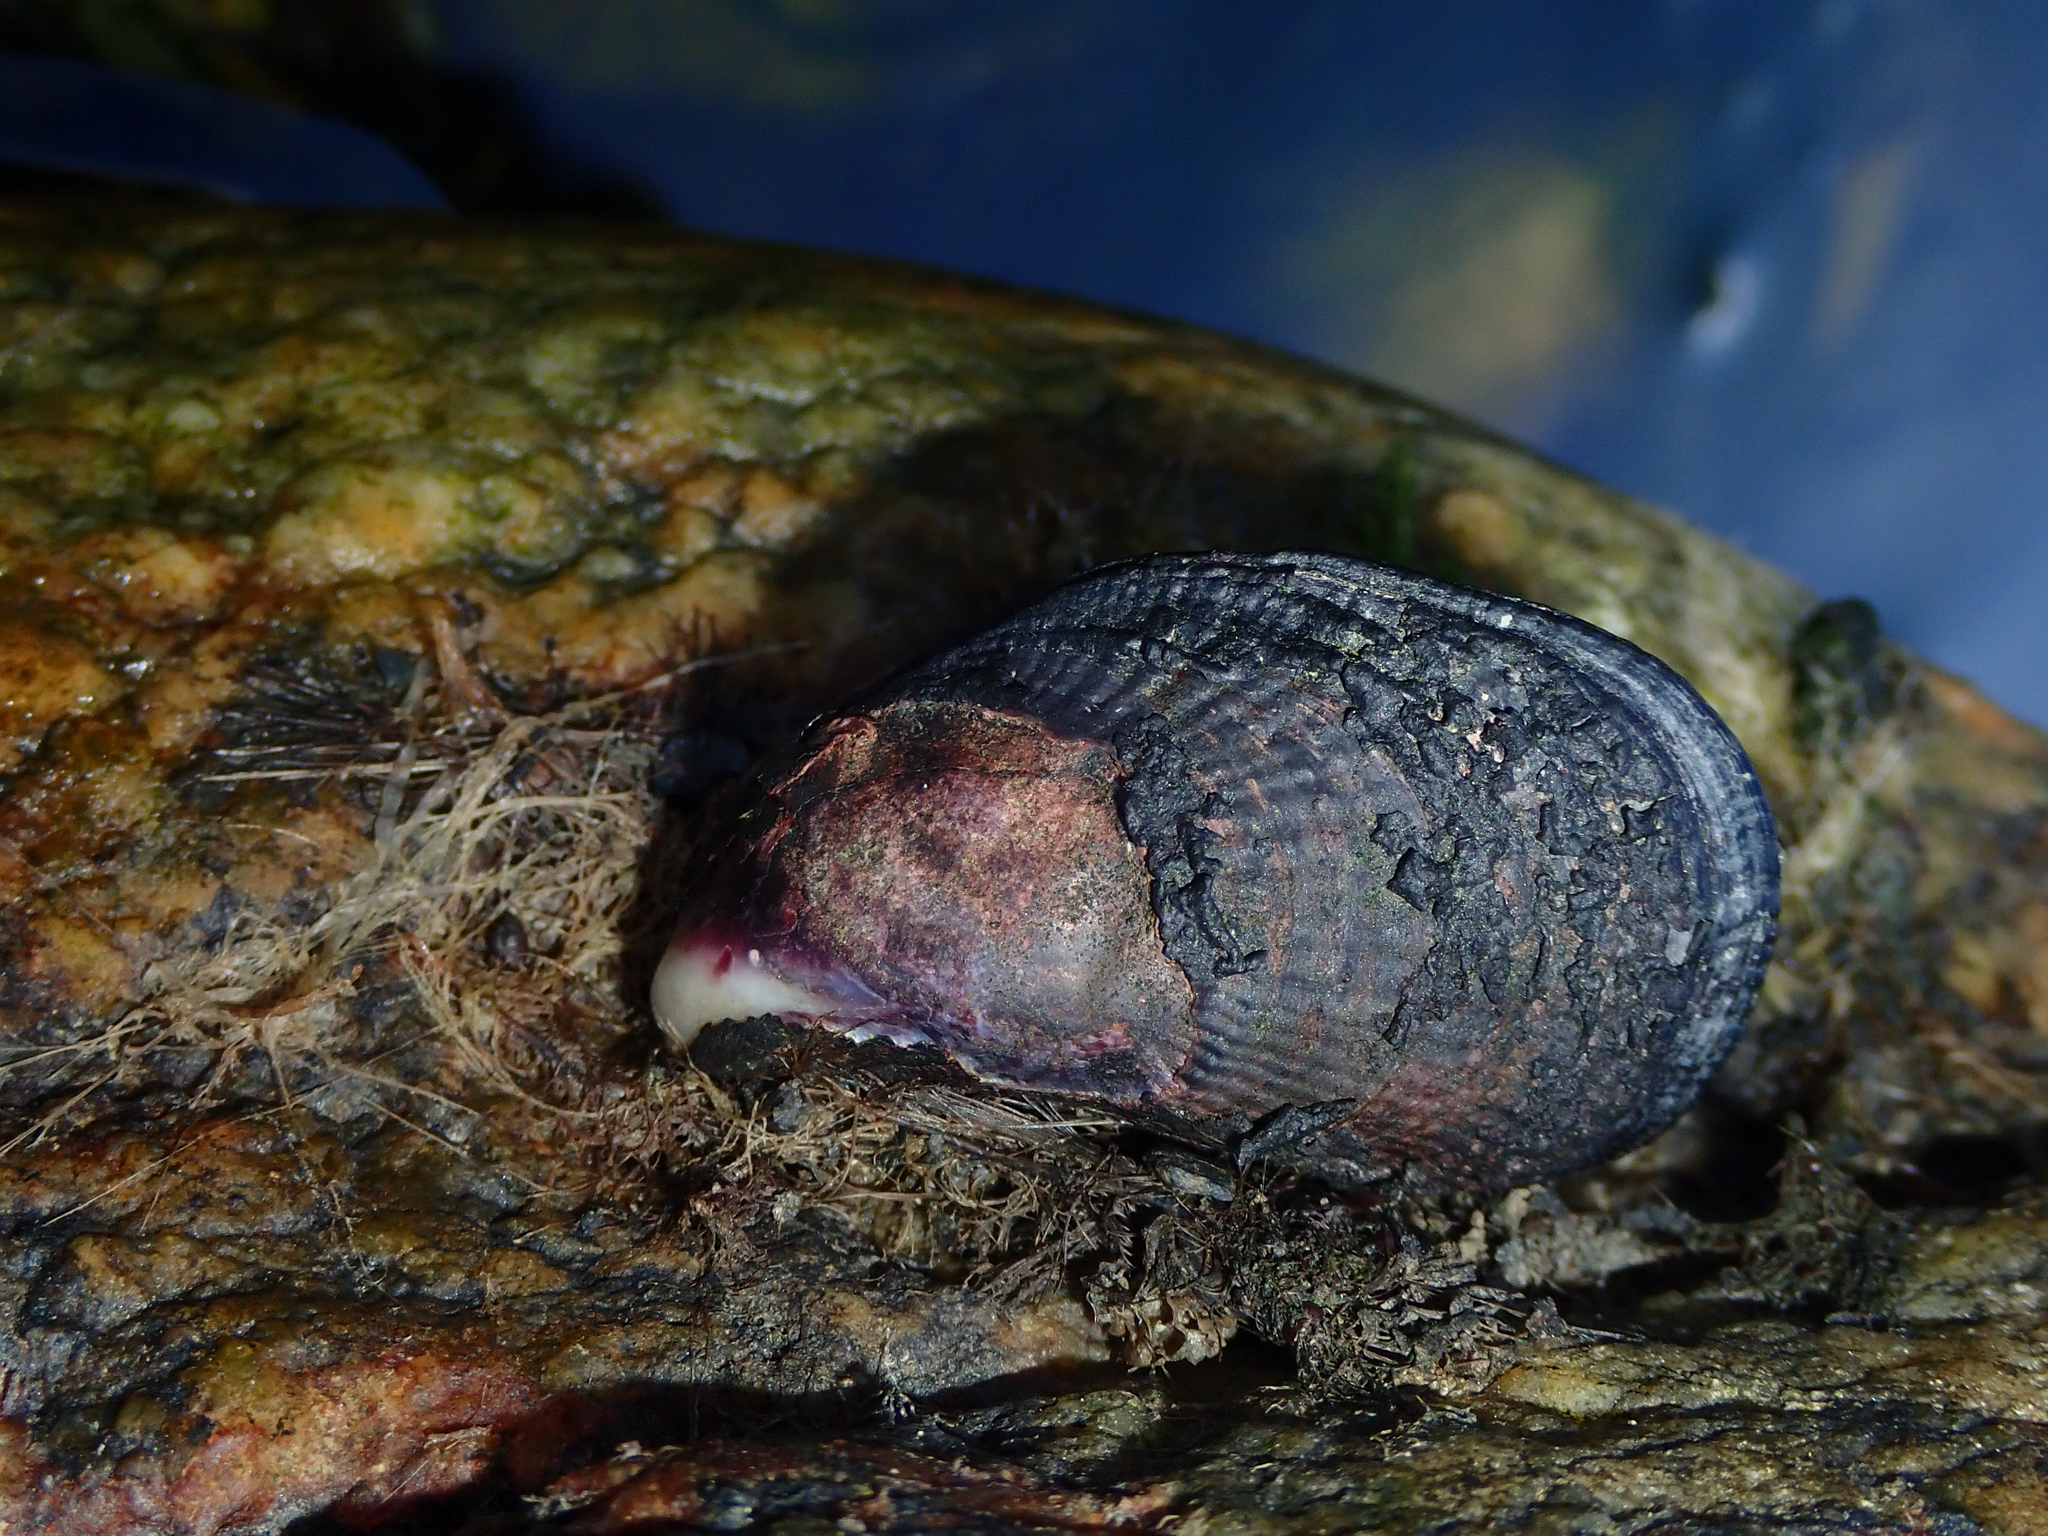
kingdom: Animalia
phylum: Mollusca
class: Bivalvia
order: Mytilida
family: Mytilidae
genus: Aulacomya
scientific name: Aulacomya atra
